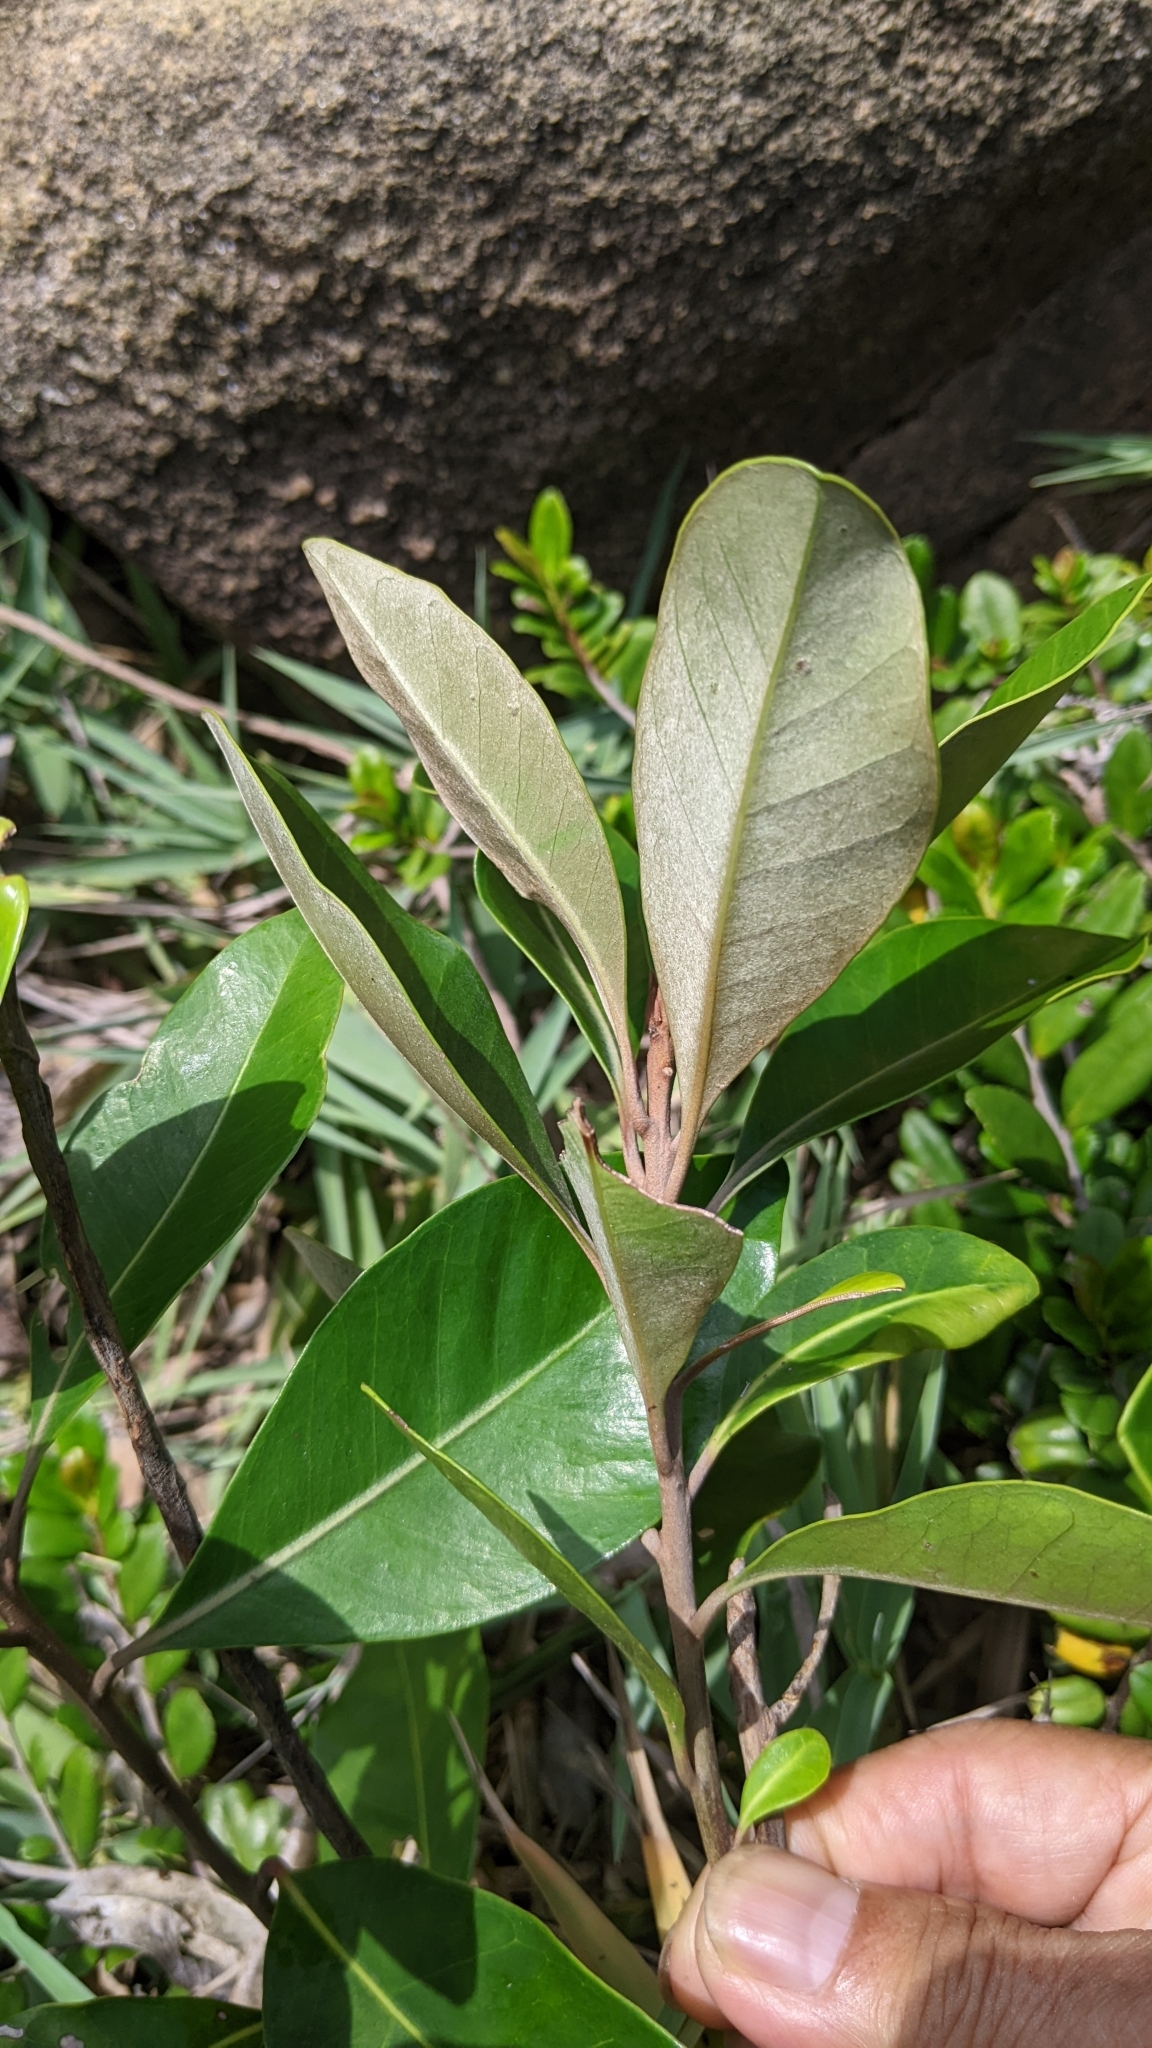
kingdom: Plantae
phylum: Tracheophyta
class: Magnoliopsida
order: Ericales
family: Sapotaceae
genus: Planchonella
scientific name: Planchonella obovata
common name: Black-ash
